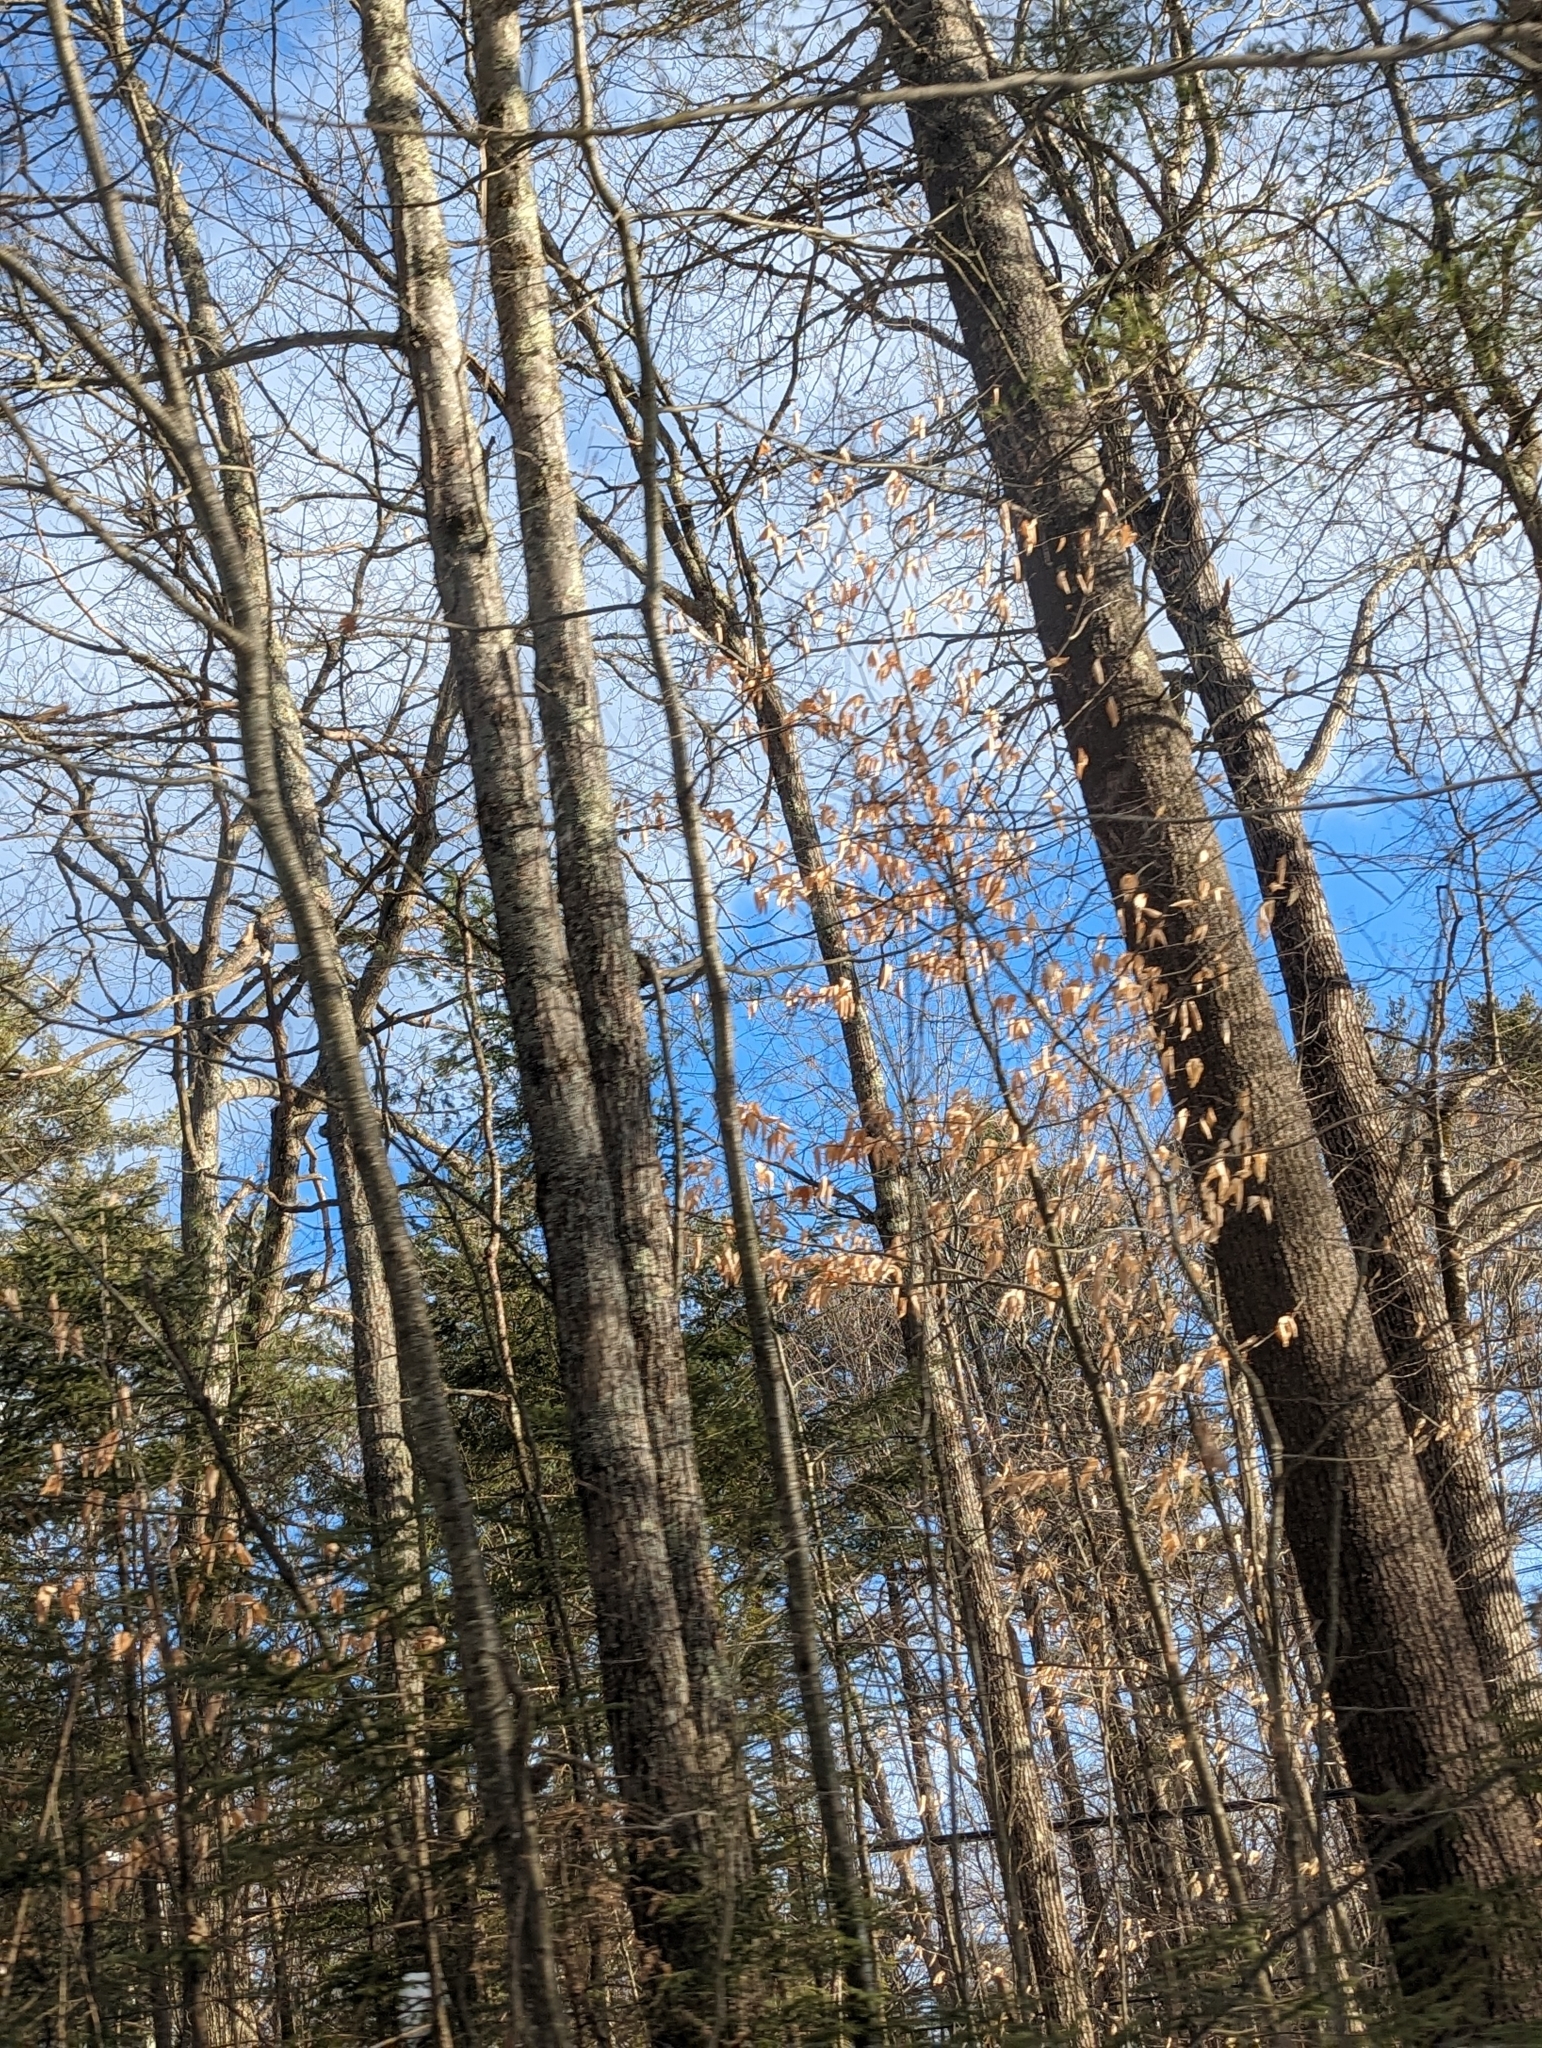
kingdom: Plantae
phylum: Tracheophyta
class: Magnoliopsida
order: Fagales
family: Fagaceae
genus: Fagus
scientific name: Fagus grandifolia
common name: American beech
